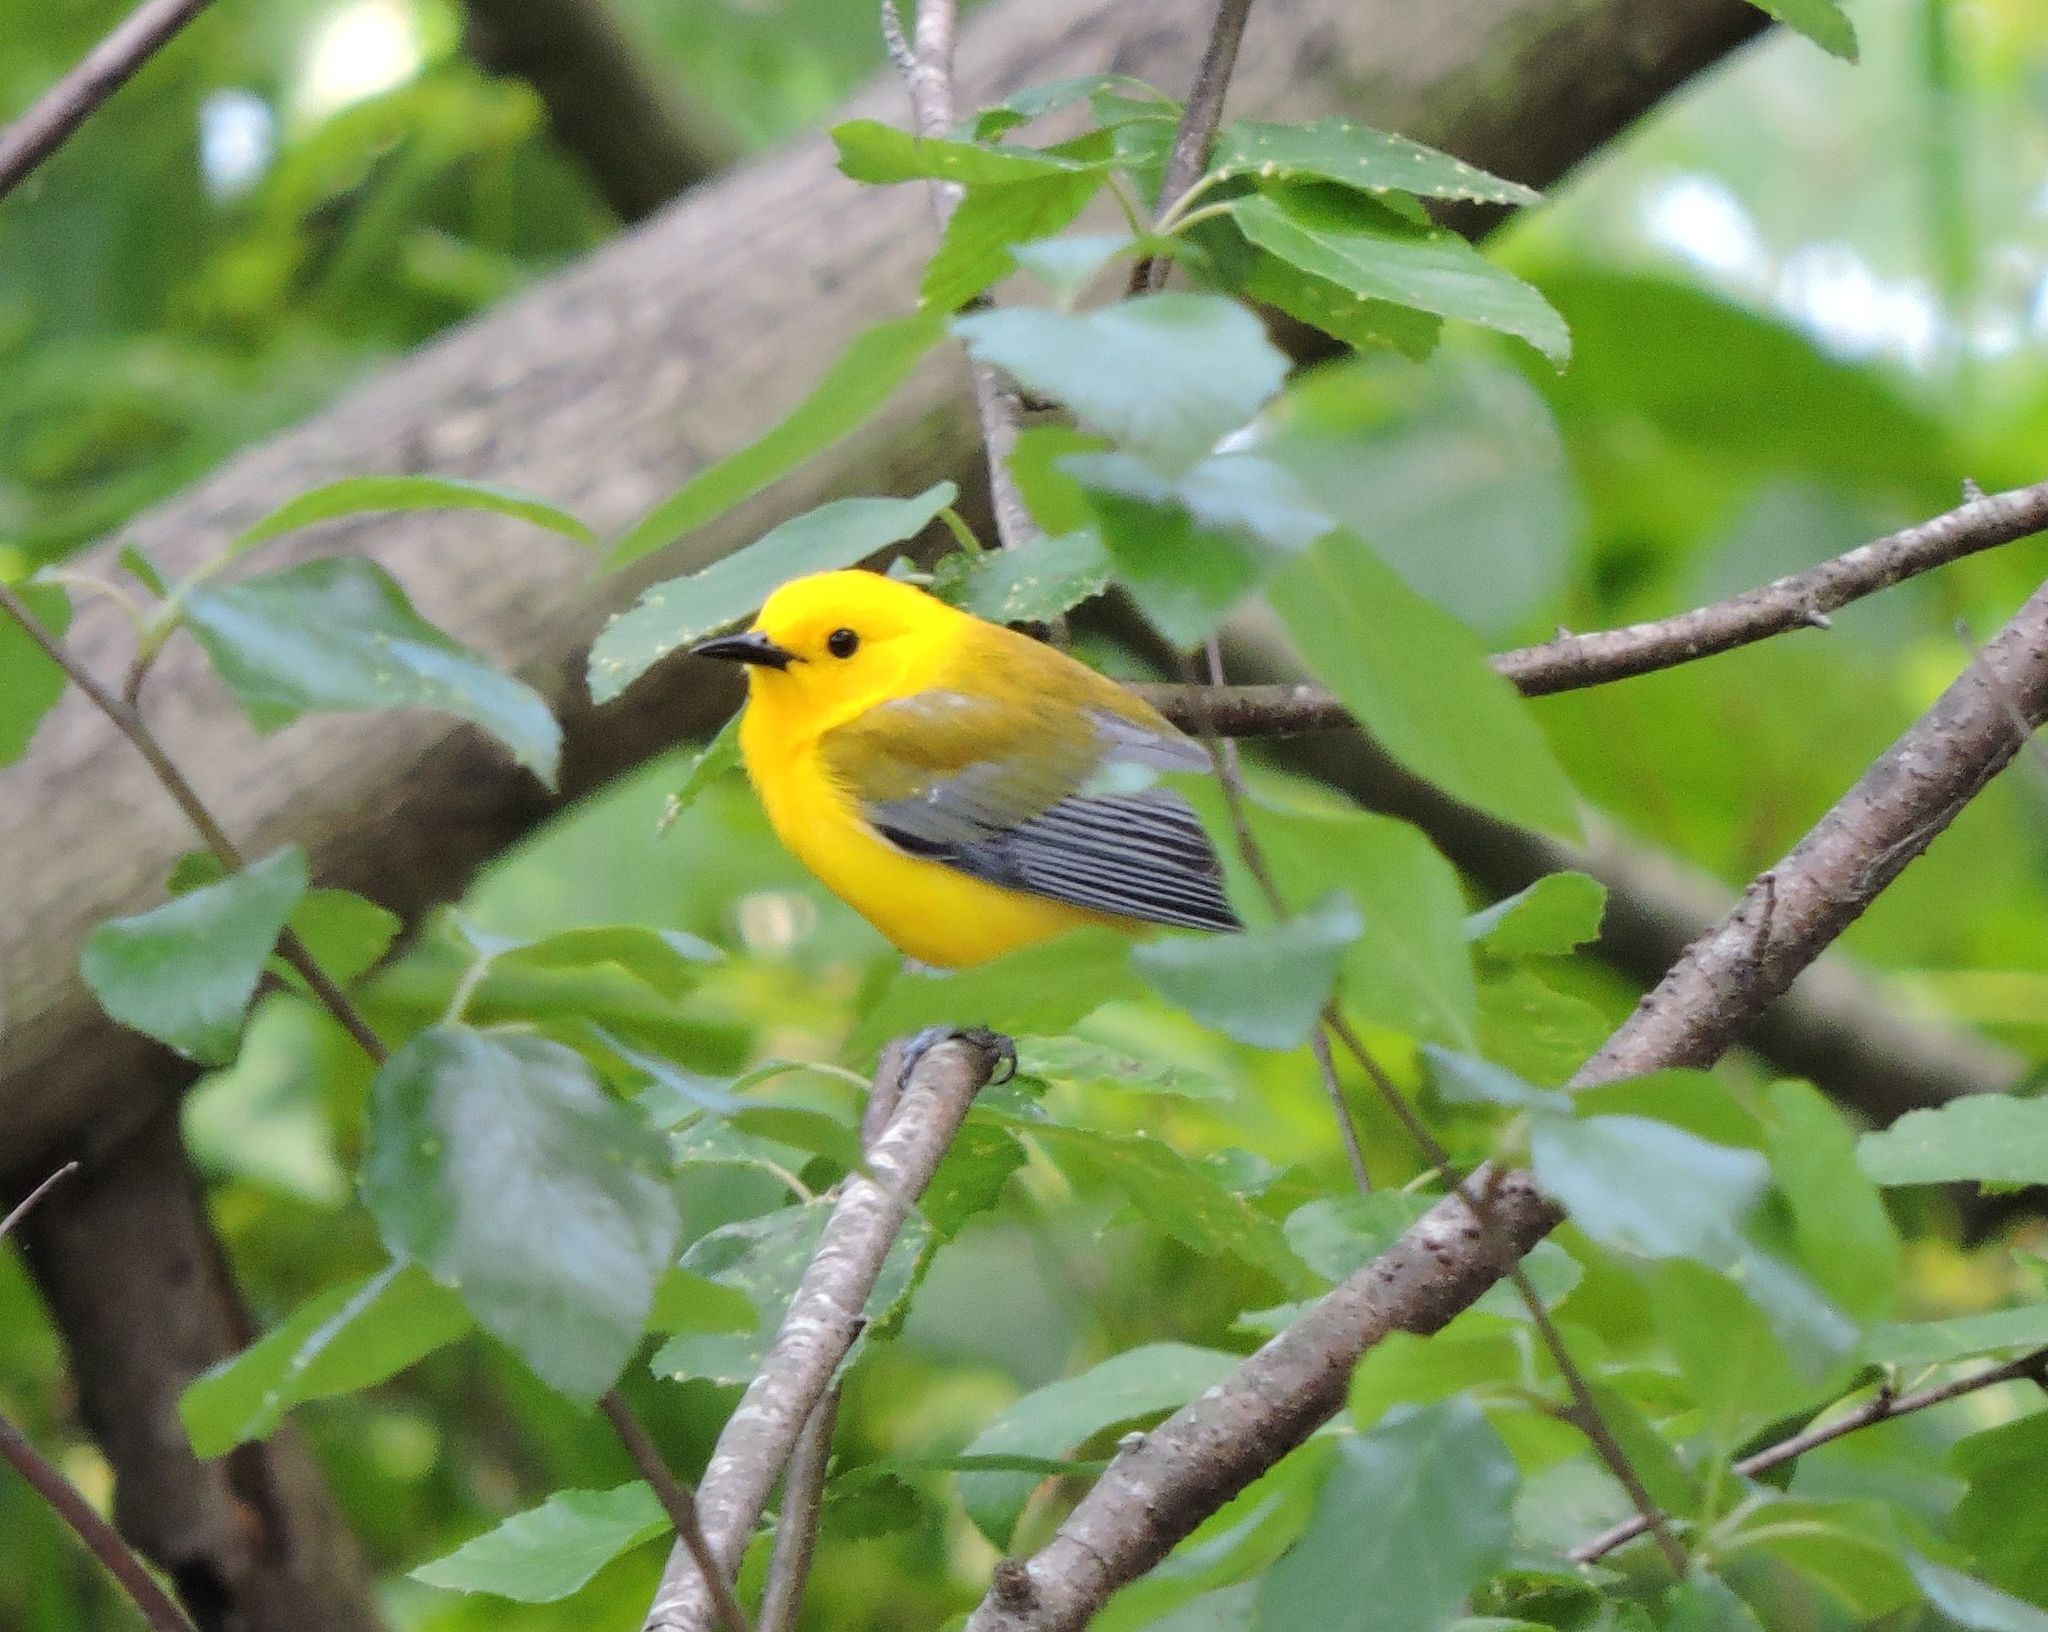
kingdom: Animalia
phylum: Chordata
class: Aves
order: Passeriformes
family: Parulidae
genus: Protonotaria
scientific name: Protonotaria citrea
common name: Prothonotary warbler
